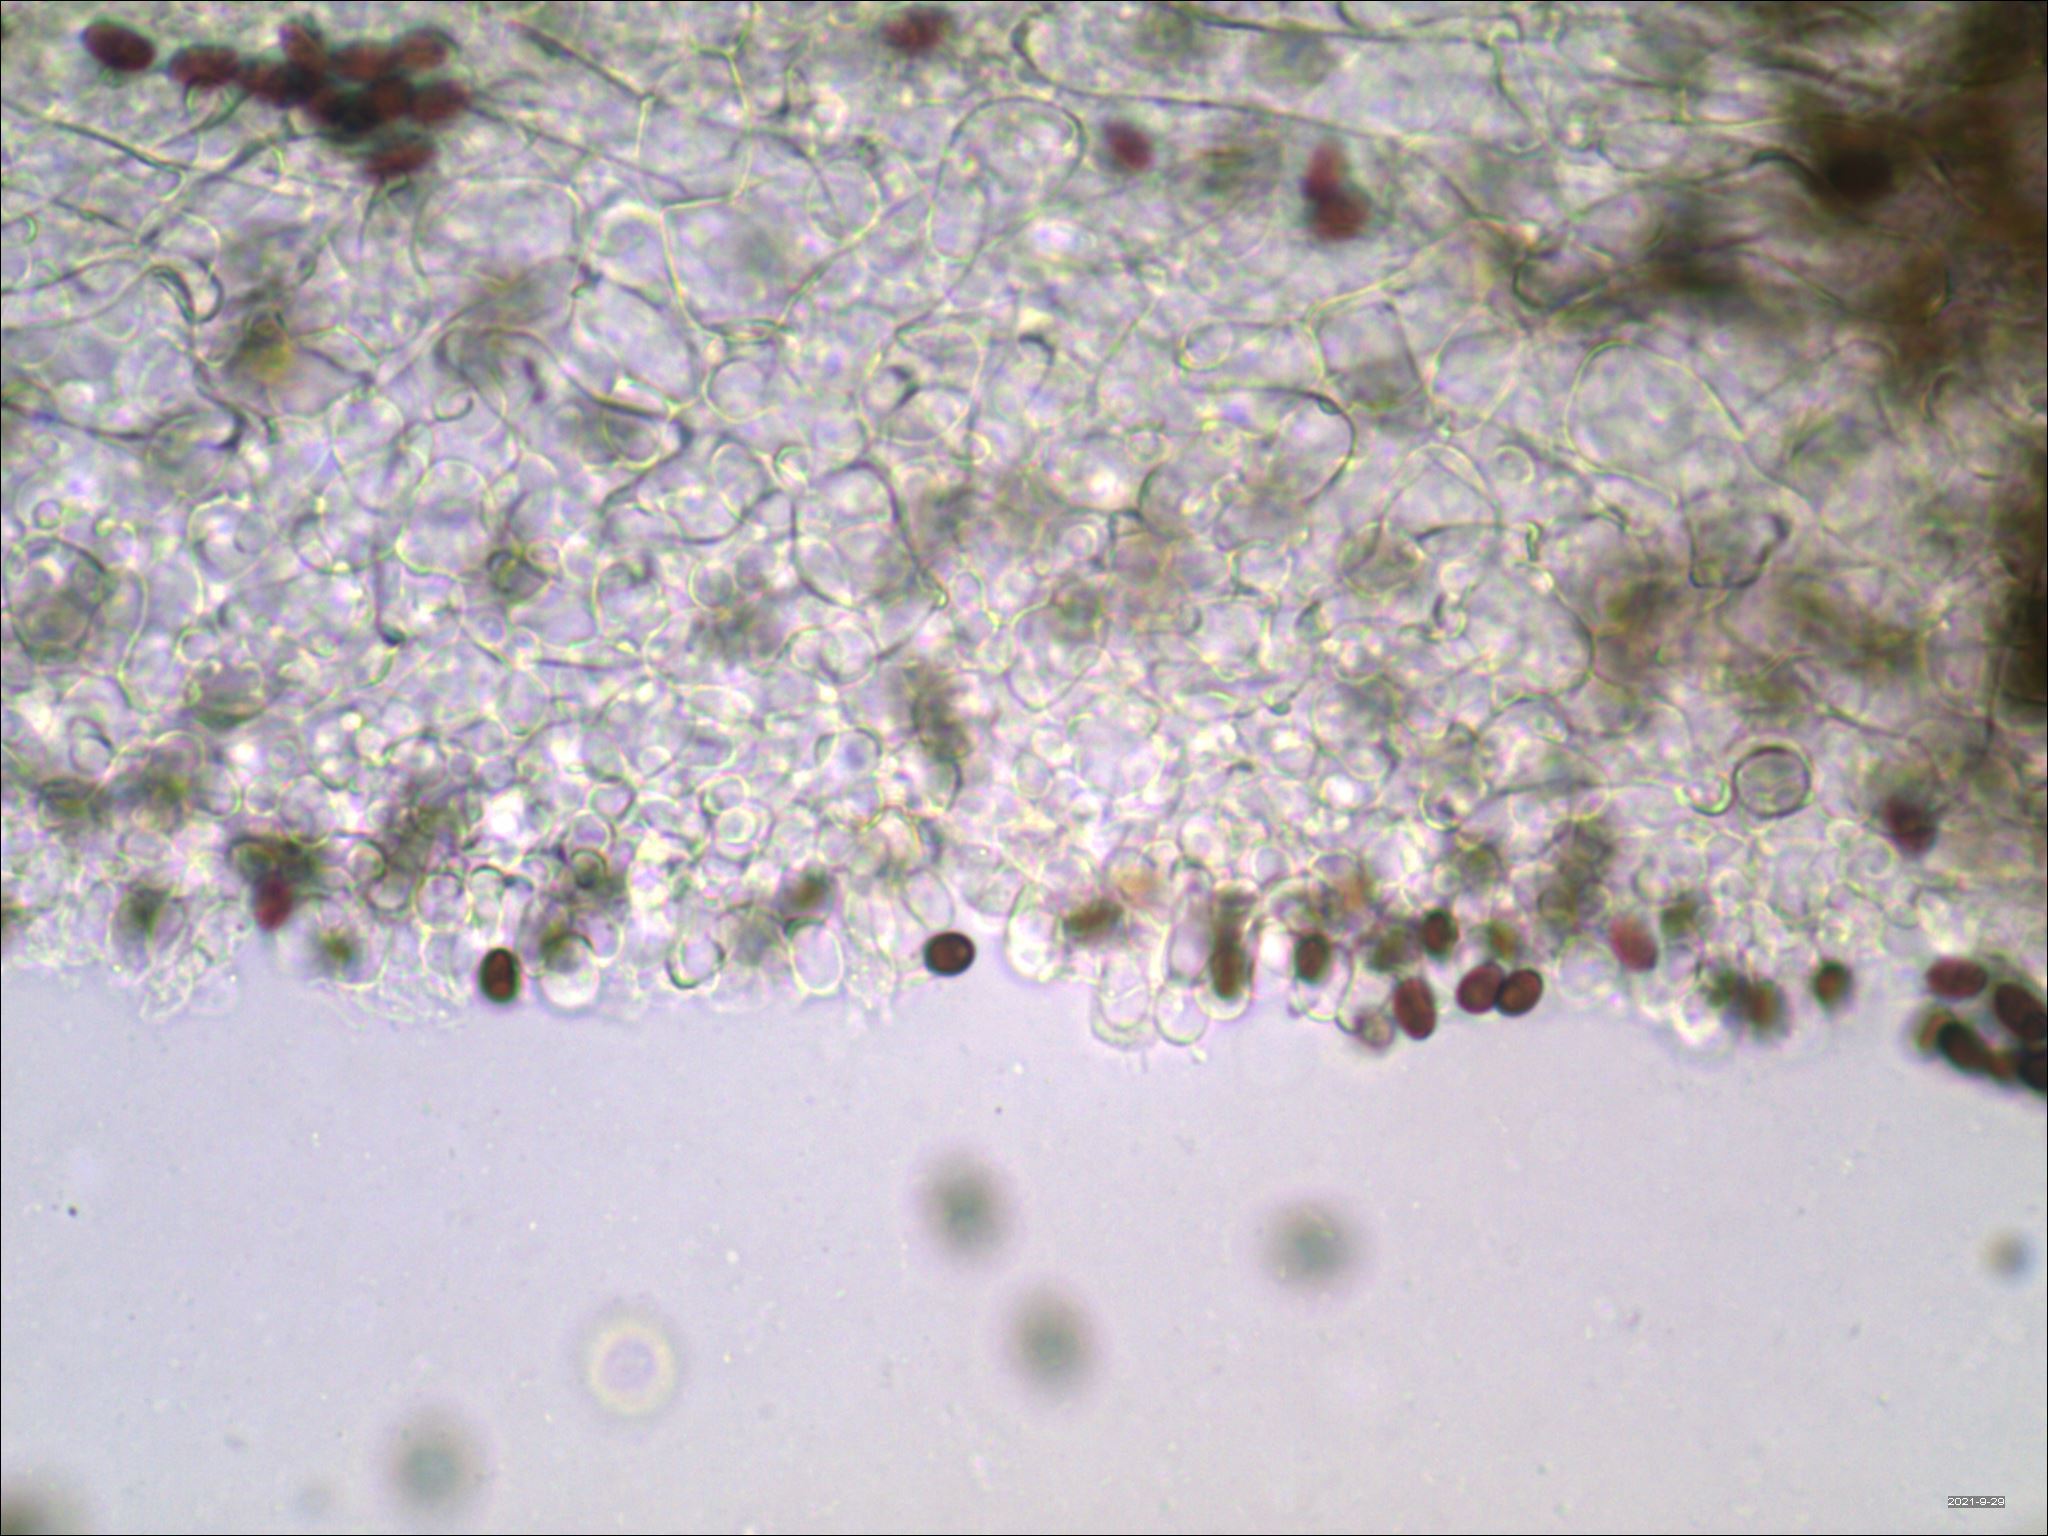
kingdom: Fungi
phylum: Basidiomycota
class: Agaricomycetes
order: Agaricales
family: Psathyrellaceae
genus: Psathyrella
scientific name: Psathyrella kauffmanii
